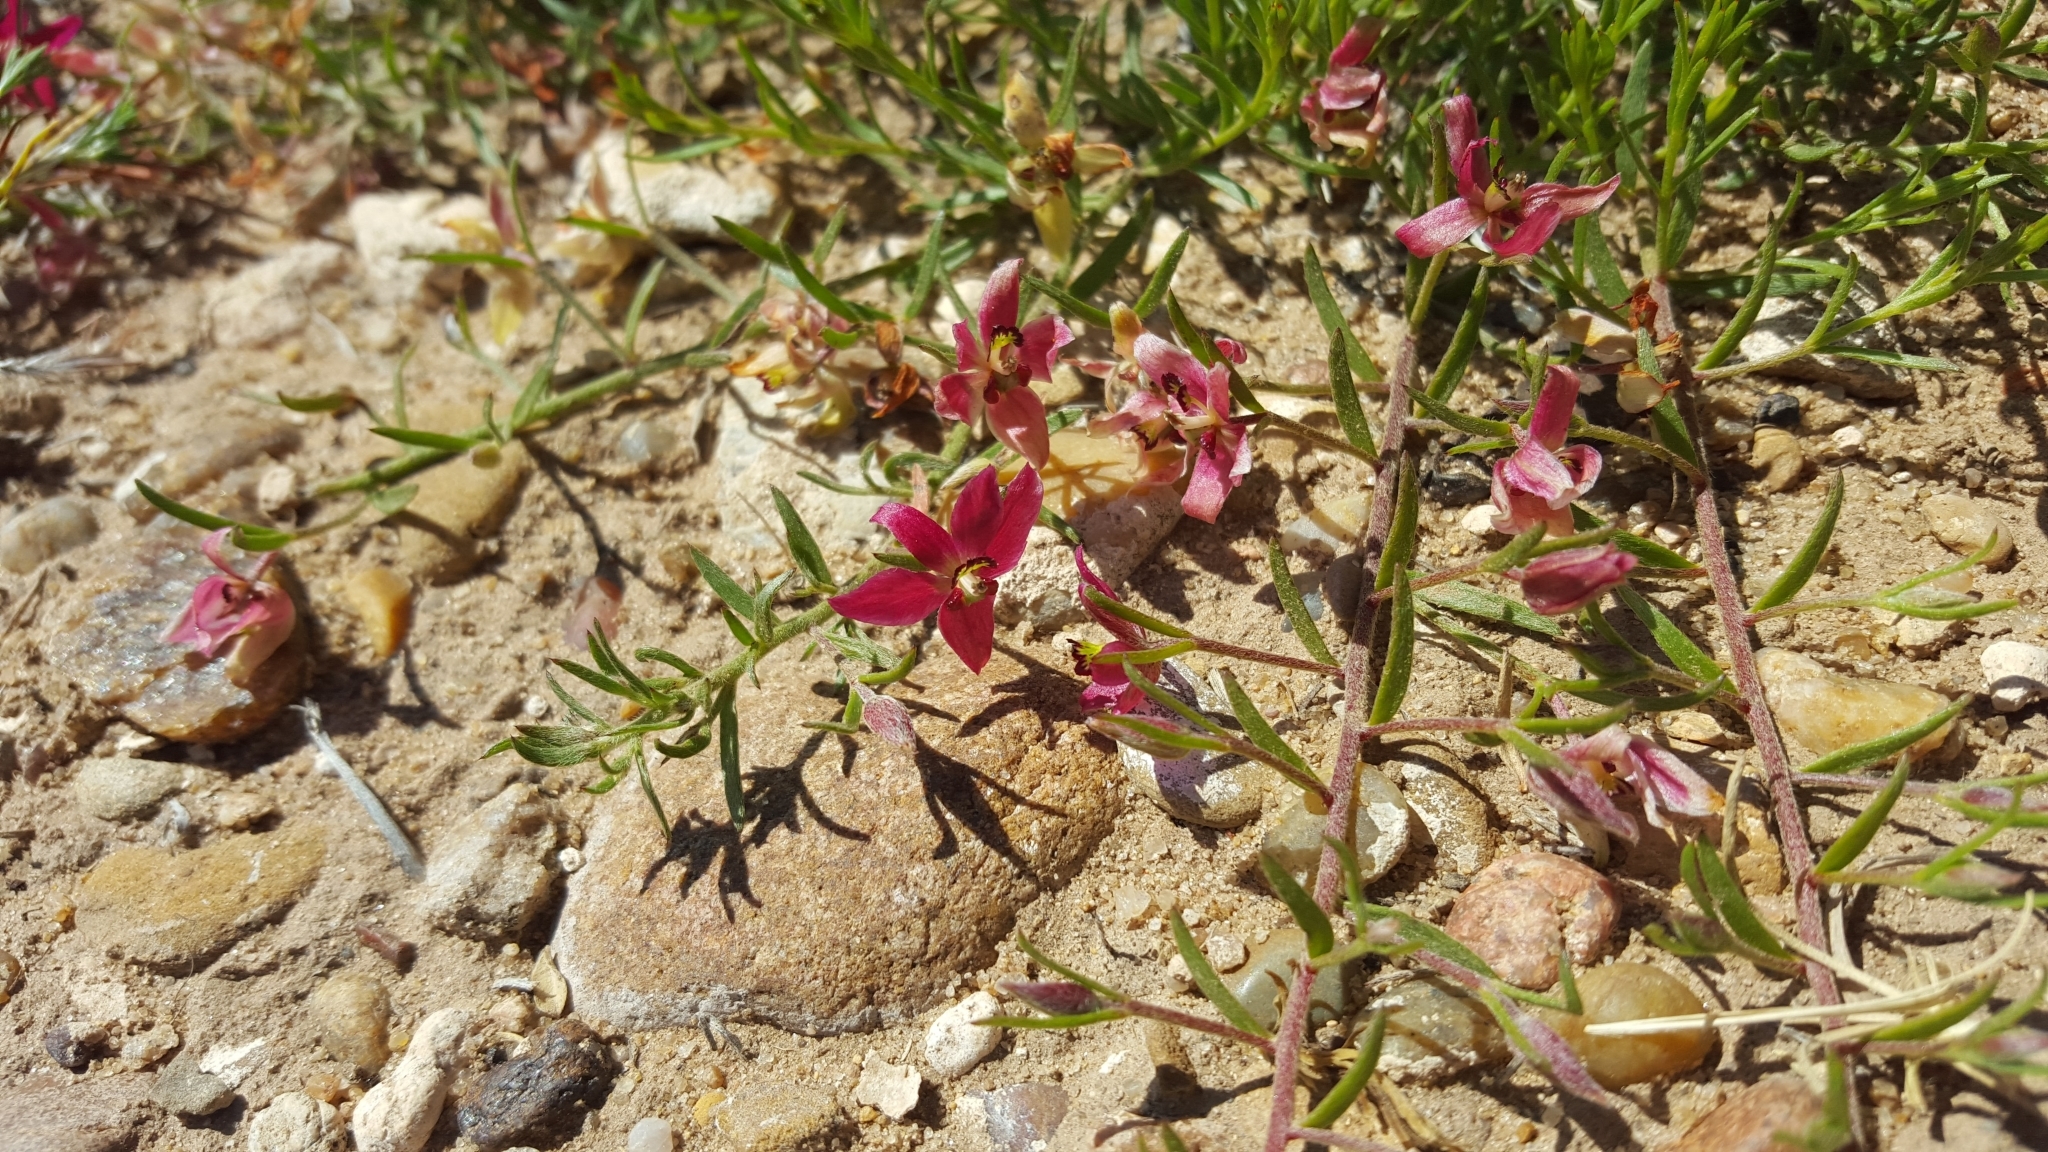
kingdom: Plantae
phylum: Tracheophyta
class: Magnoliopsida
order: Zygophyllales
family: Krameriaceae
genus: Krameria
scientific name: Krameria lanceolata
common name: Ratany
